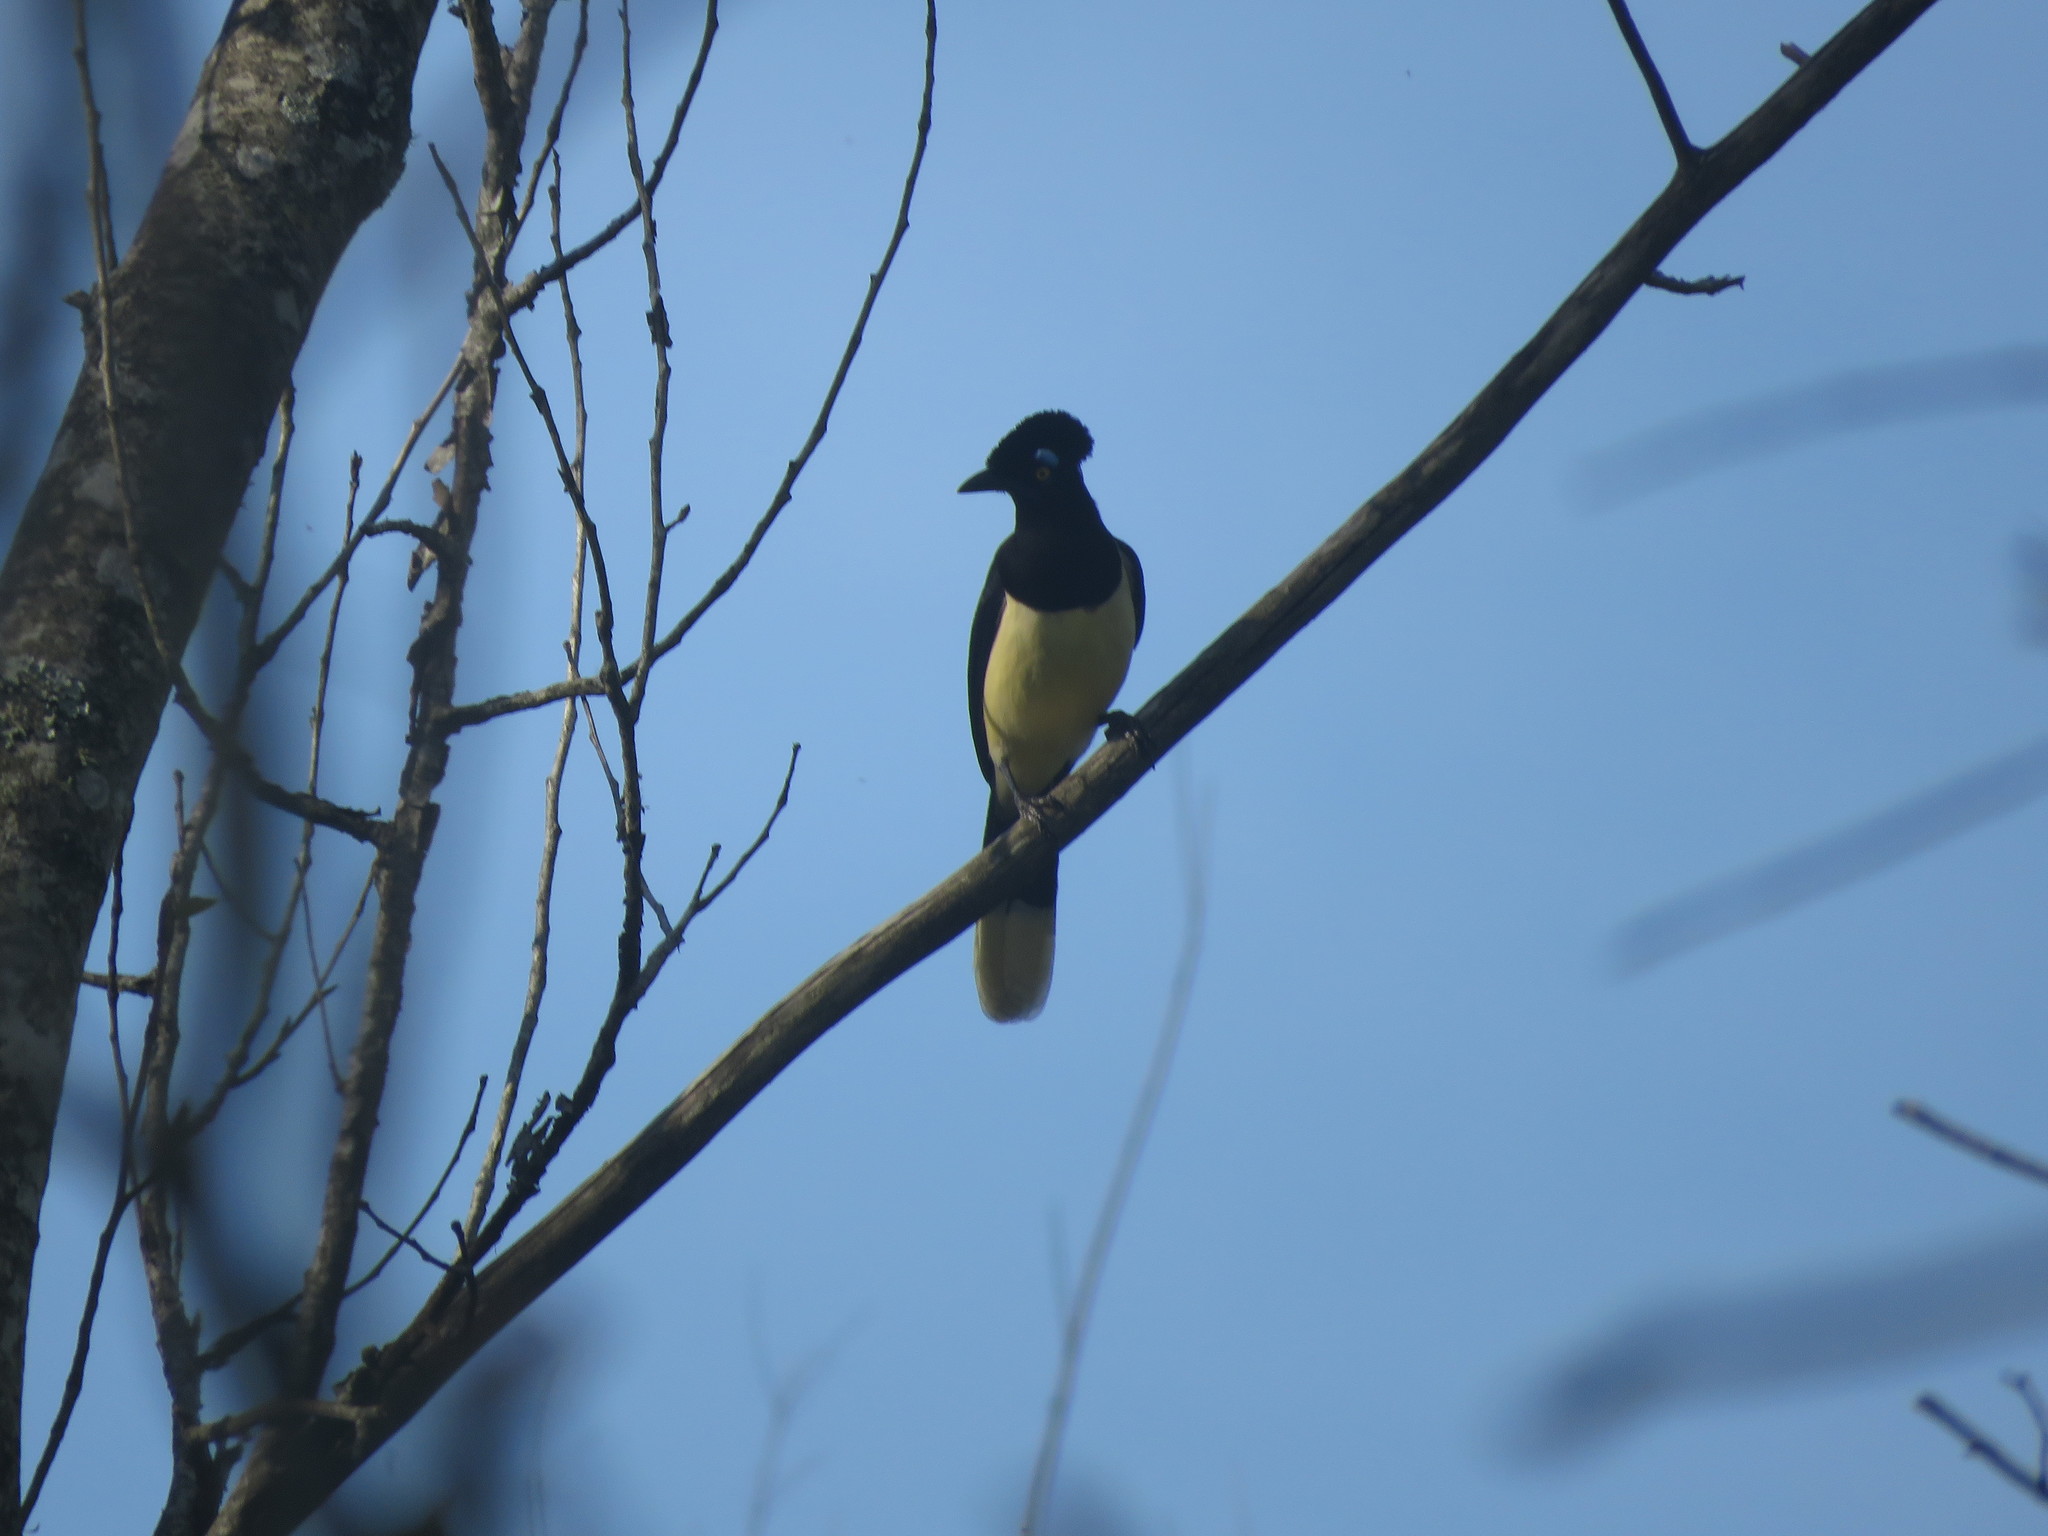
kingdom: Animalia
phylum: Chordata
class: Aves
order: Passeriformes
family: Corvidae
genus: Cyanocorax
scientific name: Cyanocorax chrysops
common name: Plush-crested jay
